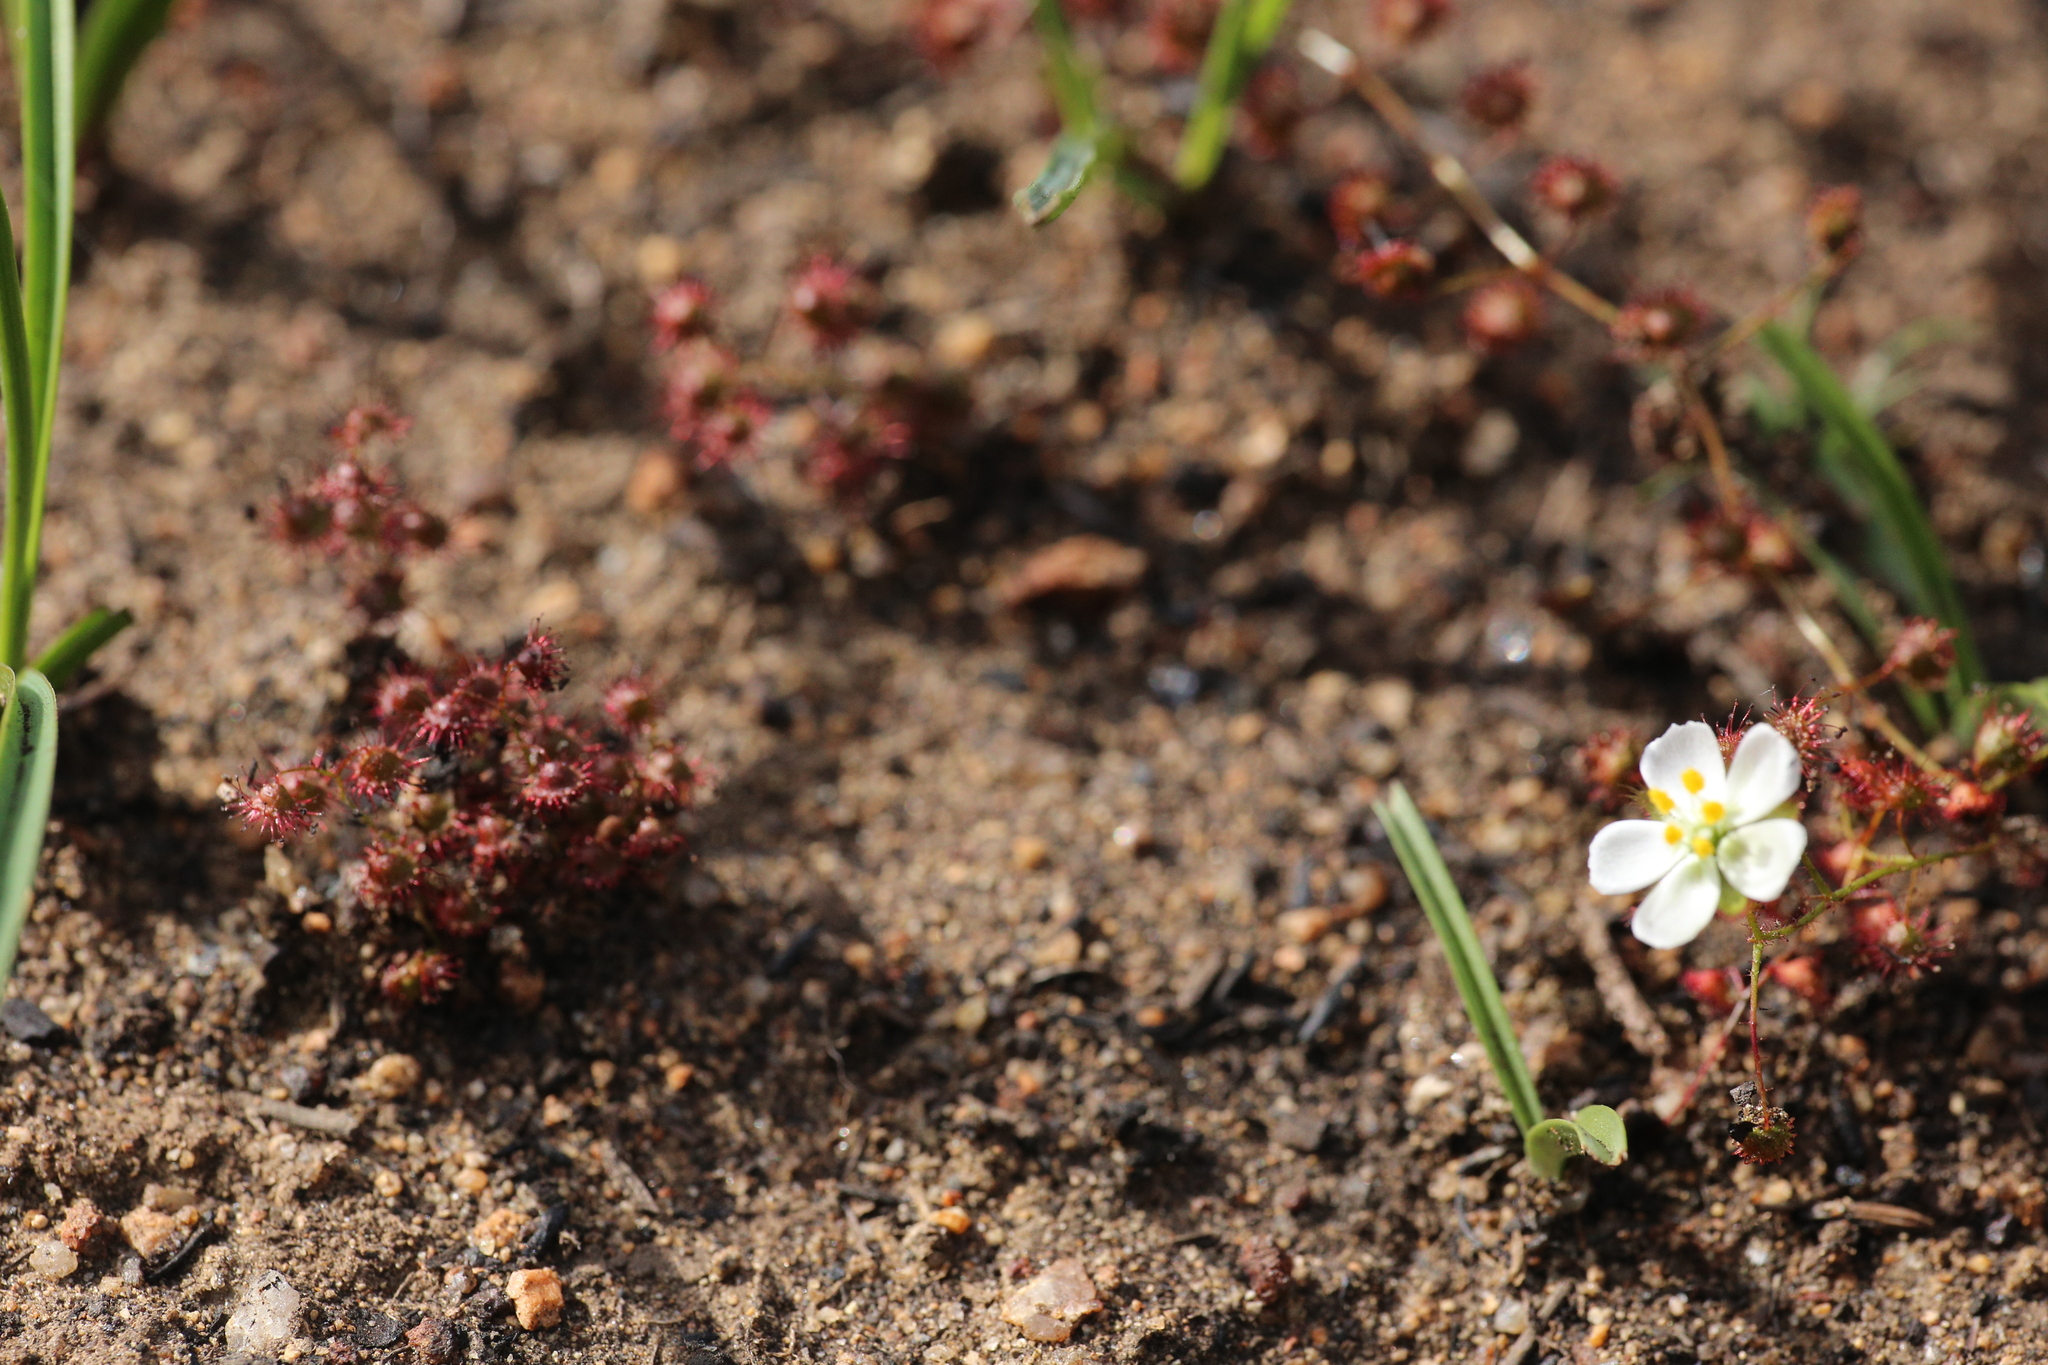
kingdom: Plantae
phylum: Tracheophyta
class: Magnoliopsida
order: Caryophyllales
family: Droseraceae
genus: Drosera
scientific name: Drosera macrantha
